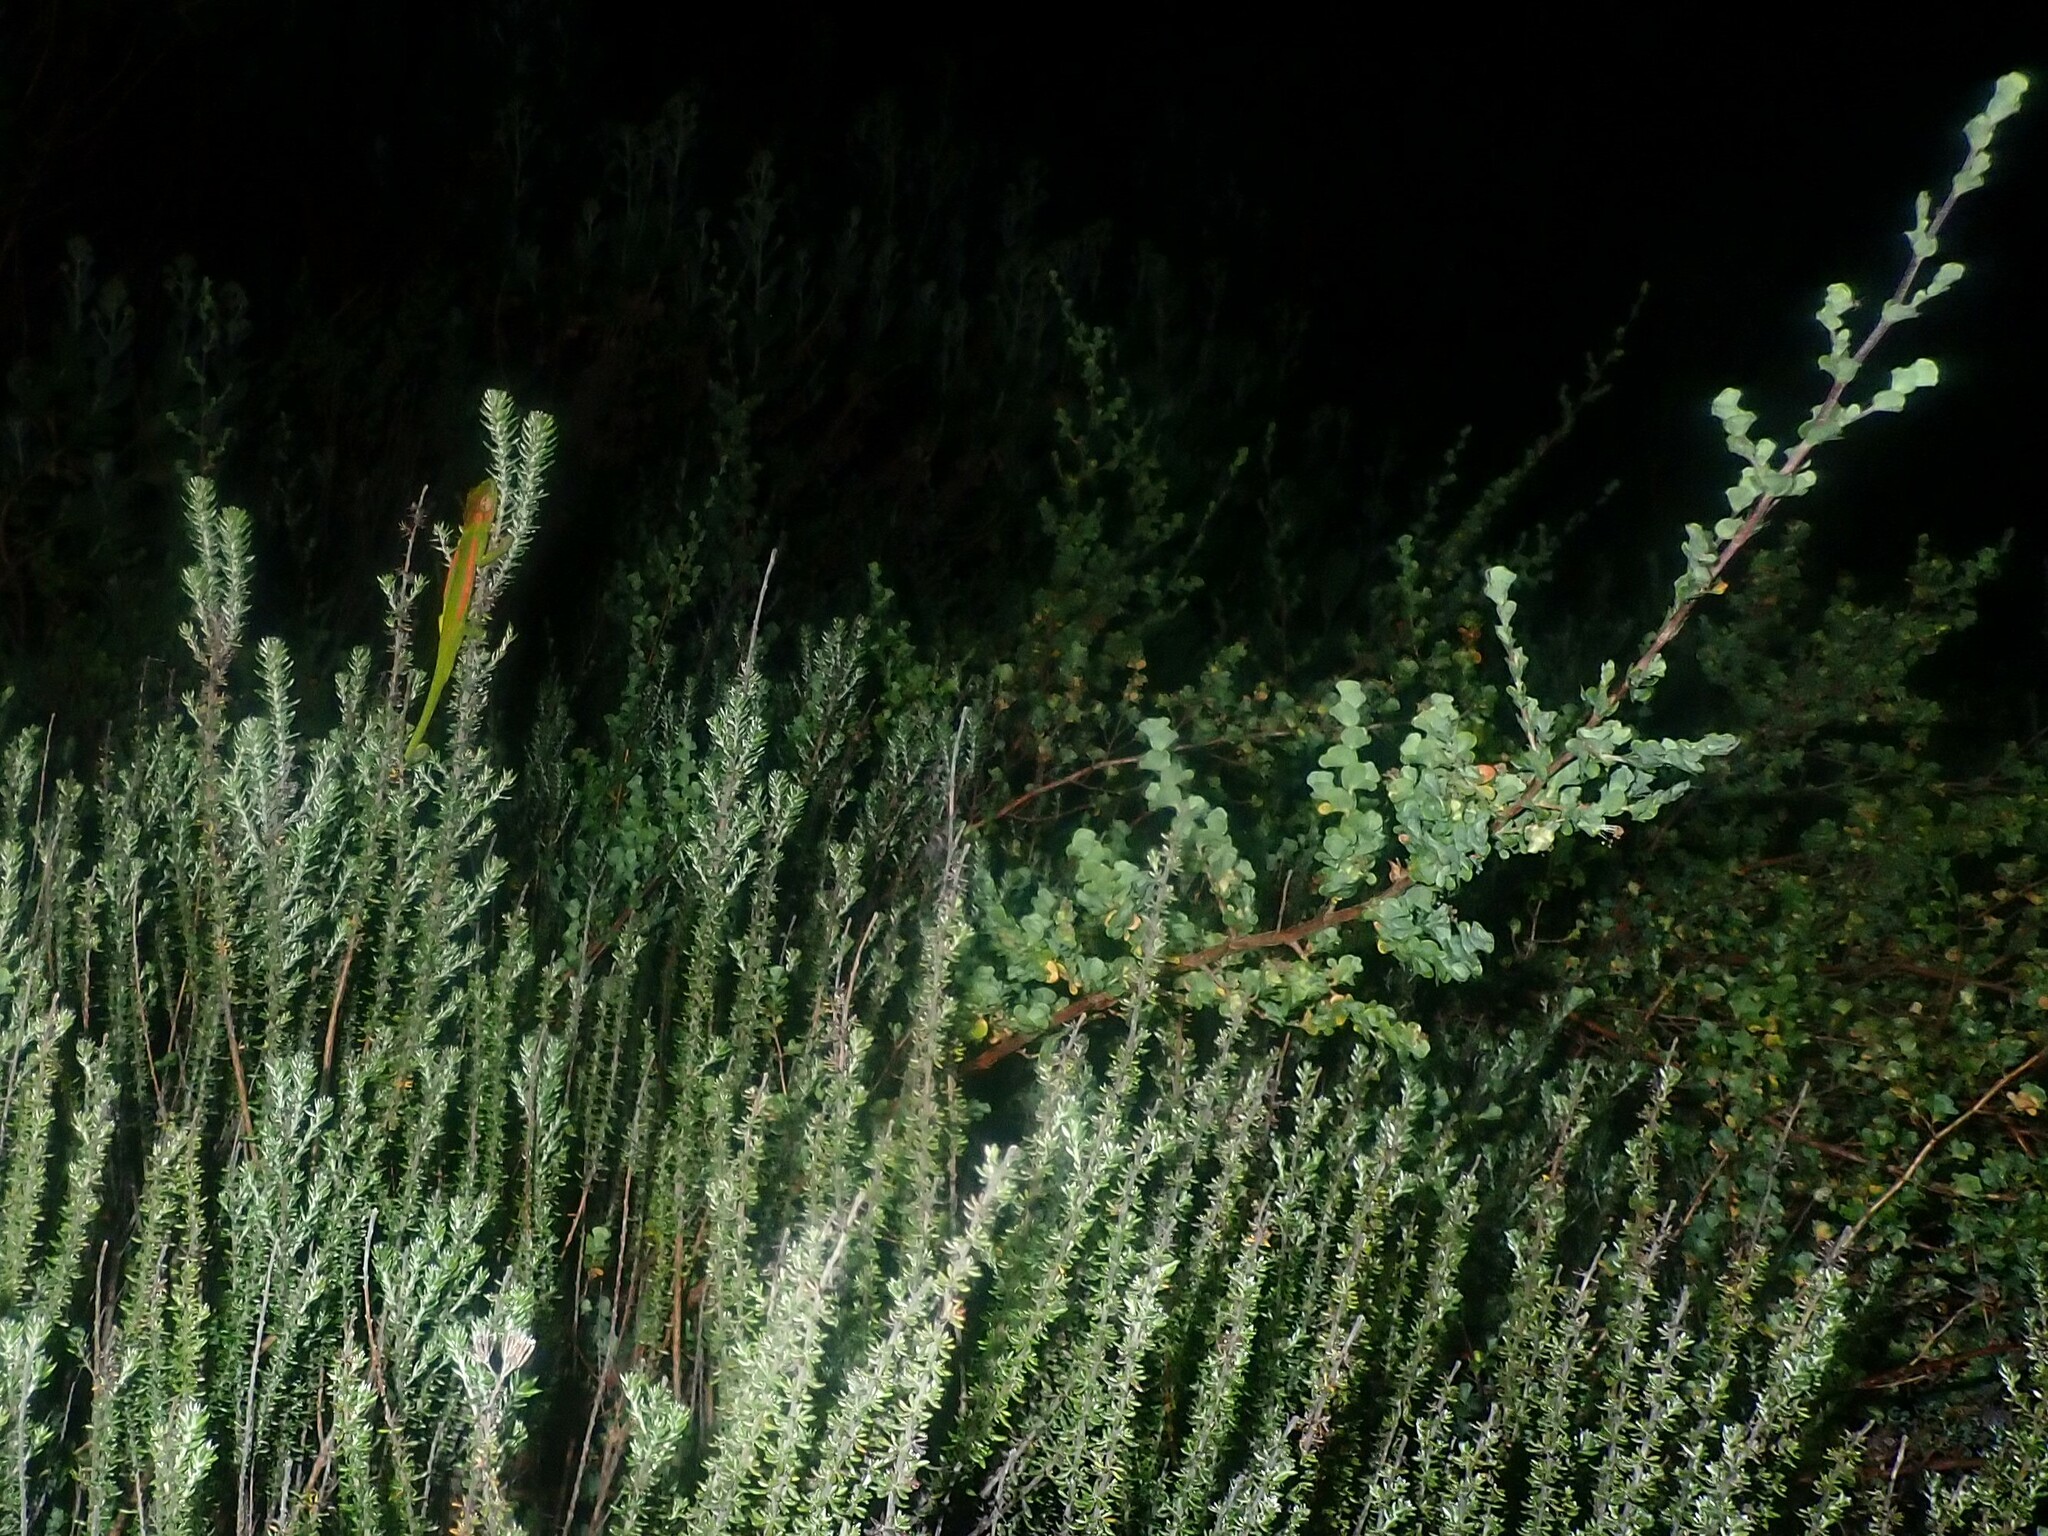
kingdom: Animalia
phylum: Chordata
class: Squamata
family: Chamaeleonidae
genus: Bradypodion
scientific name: Bradypodion pumilum
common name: Cape dwarf chameleon
